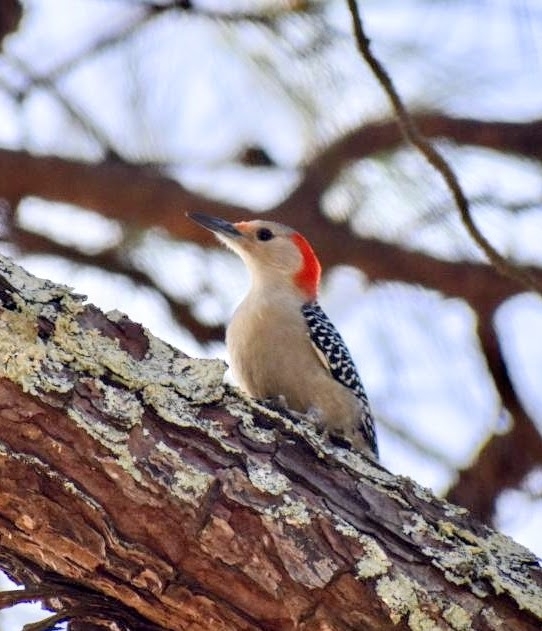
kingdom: Animalia
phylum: Chordata
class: Aves
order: Piciformes
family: Picidae
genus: Melanerpes
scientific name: Melanerpes carolinus
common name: Red-bellied woodpecker
